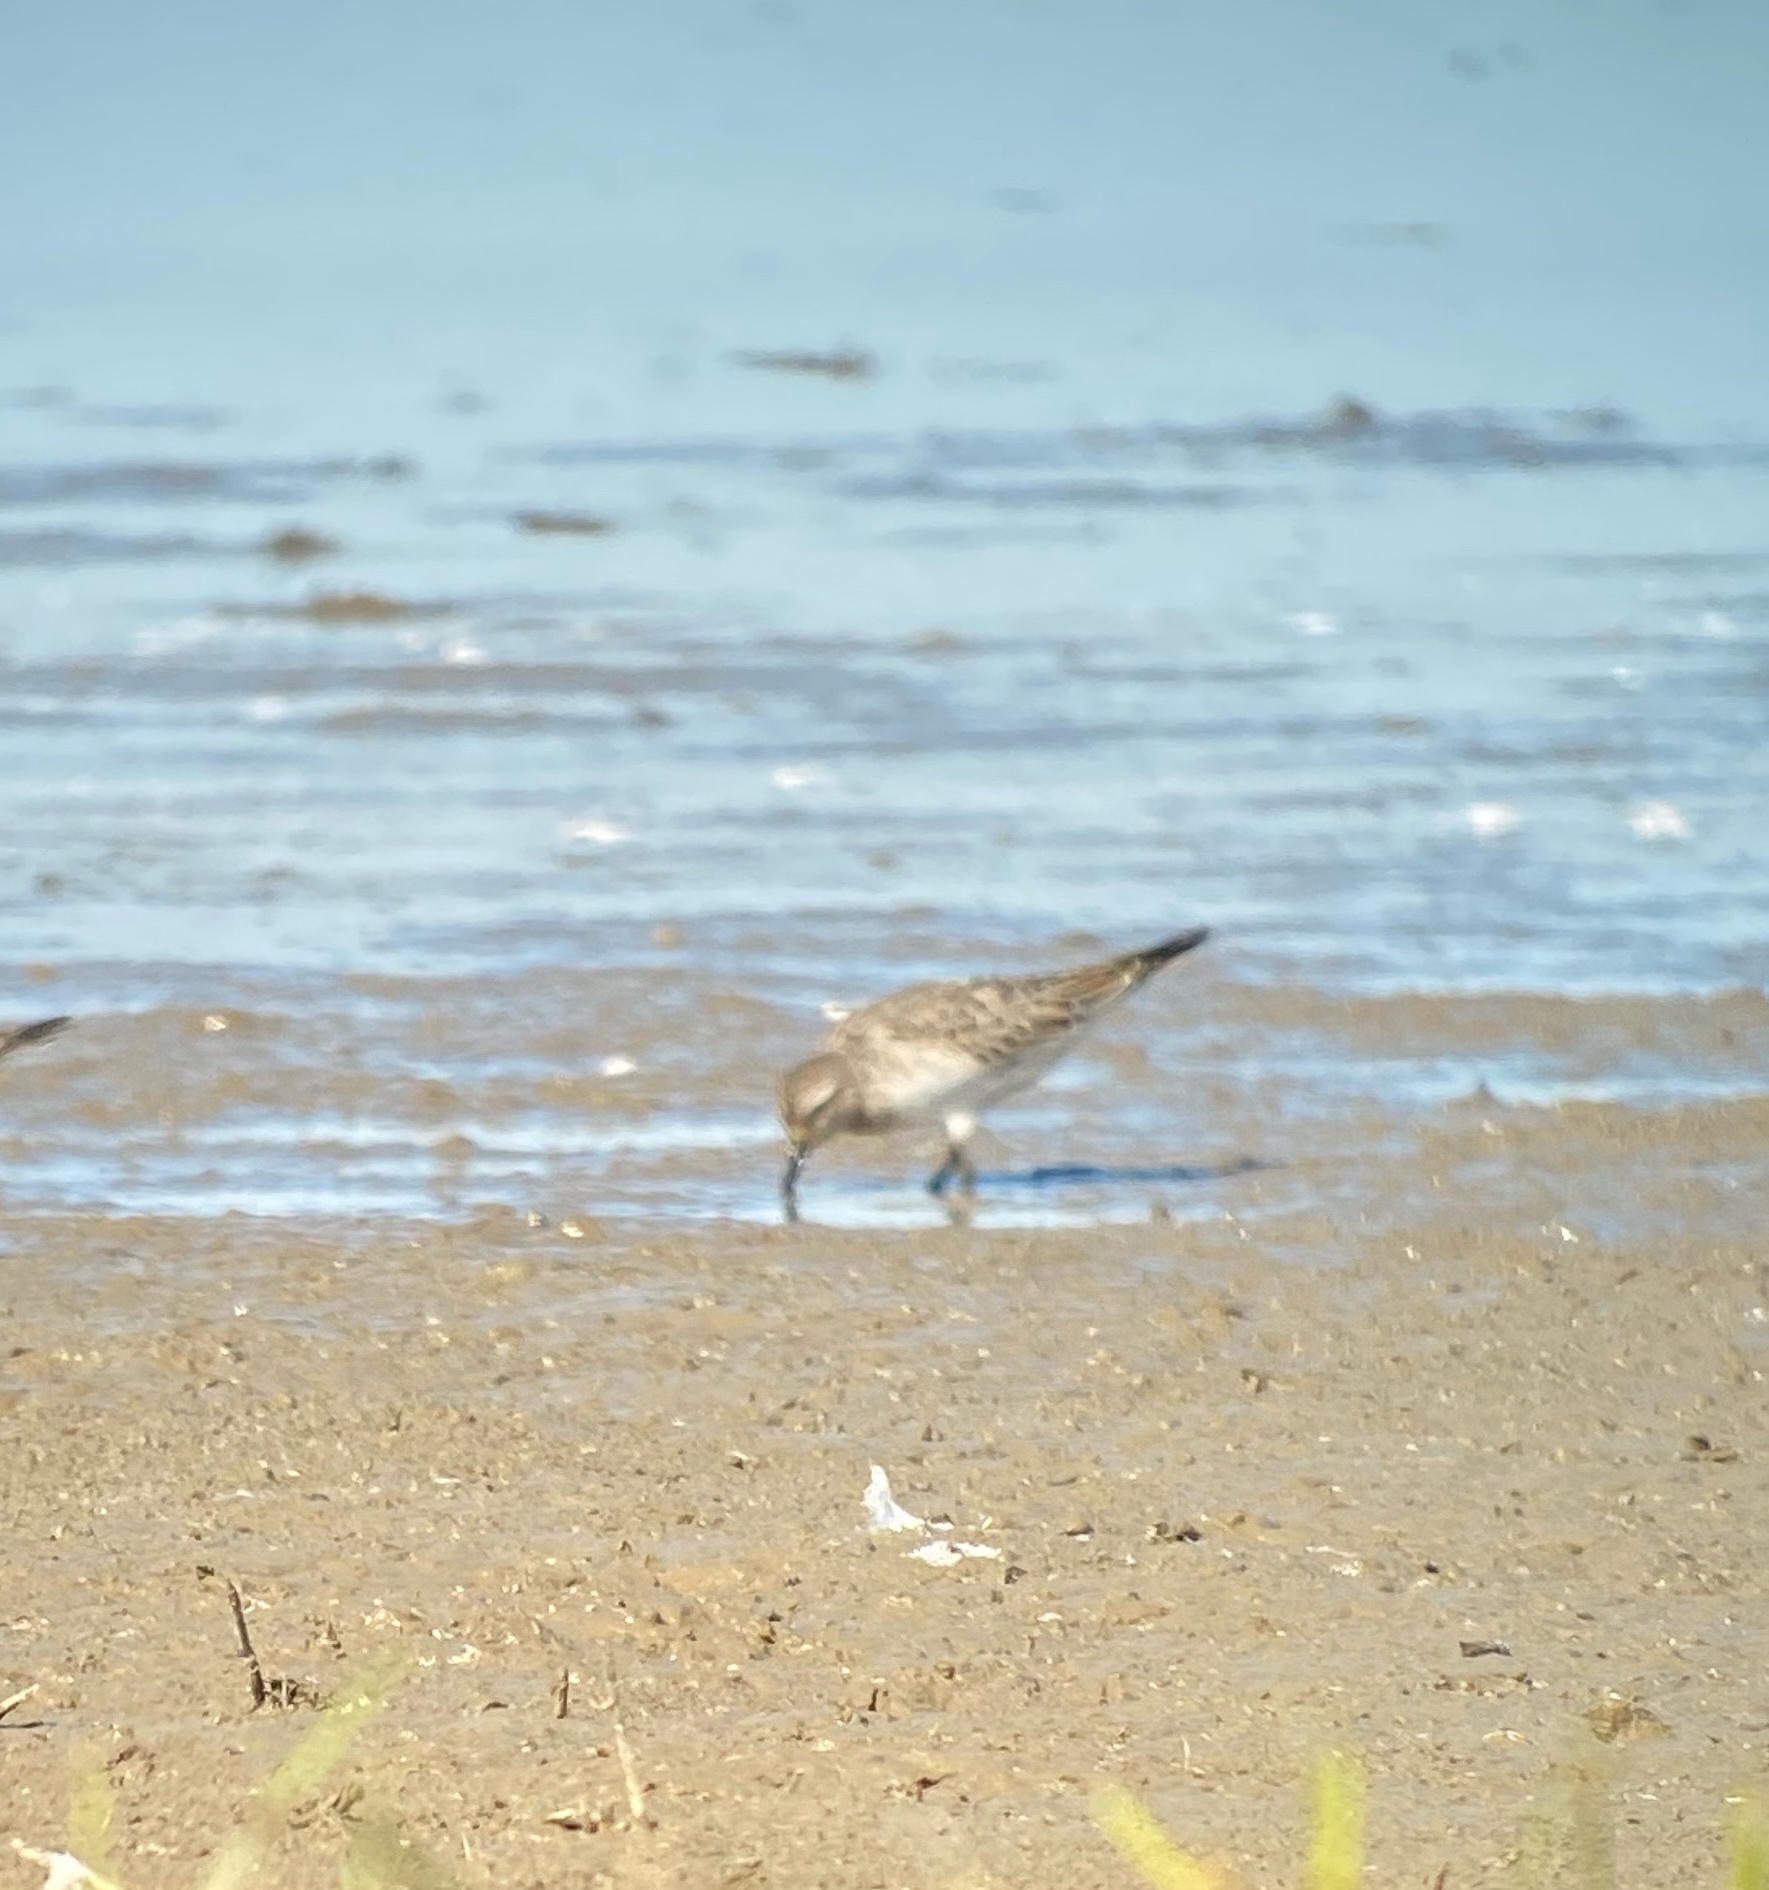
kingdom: Animalia
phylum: Chordata
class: Aves
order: Charadriiformes
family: Scolopacidae
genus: Calidris
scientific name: Calidris fuscicollis
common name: White-rumped sandpiper
